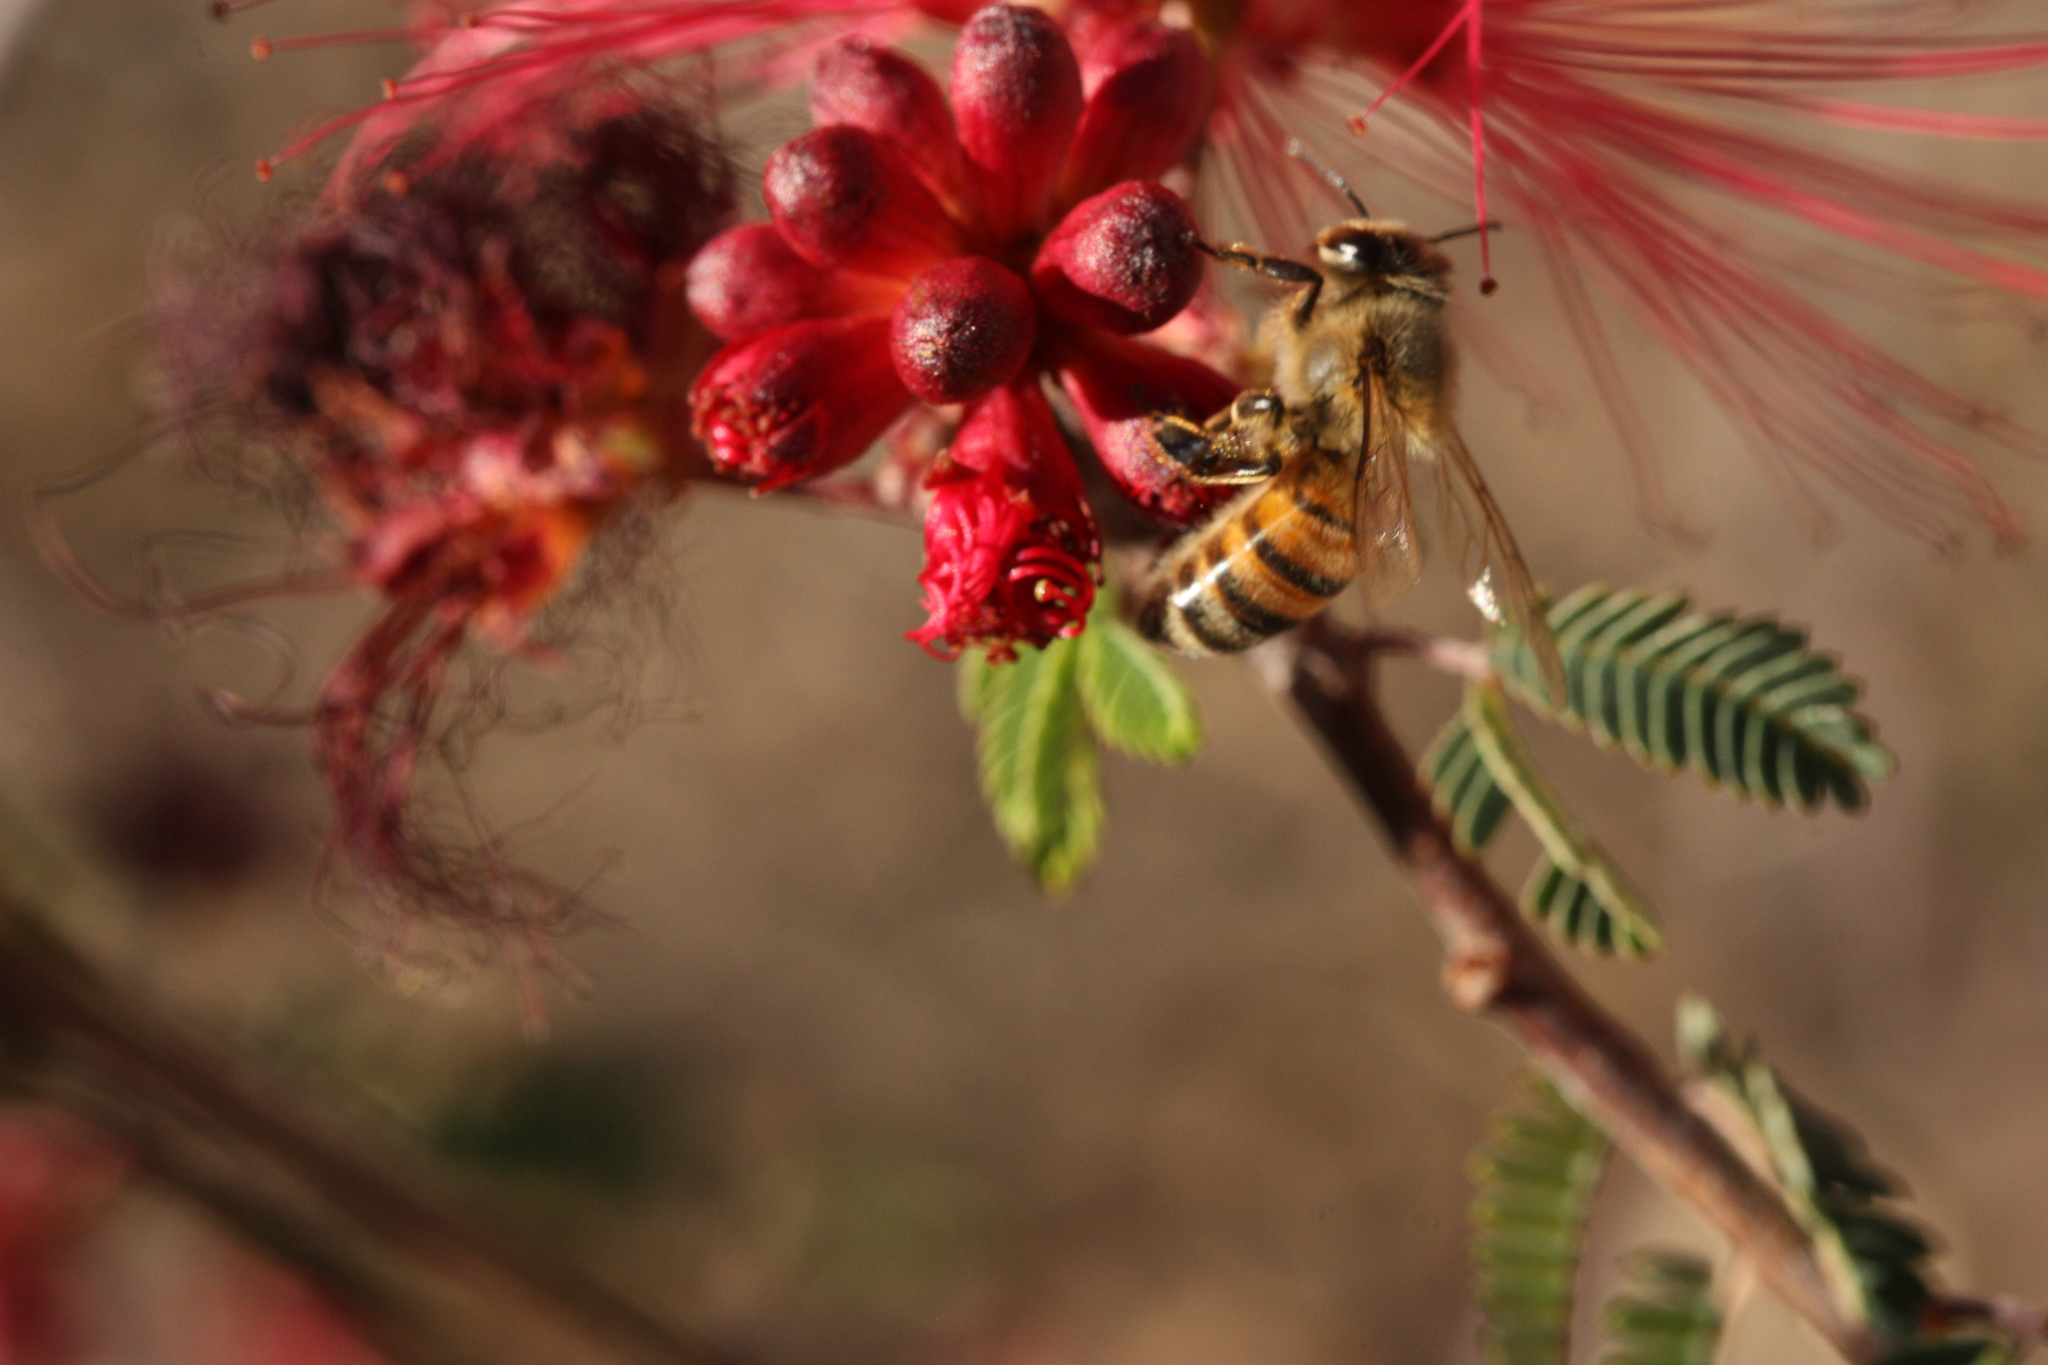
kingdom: Animalia
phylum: Arthropoda
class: Insecta
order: Hymenoptera
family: Apidae
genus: Apis
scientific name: Apis mellifera
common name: Honey bee
